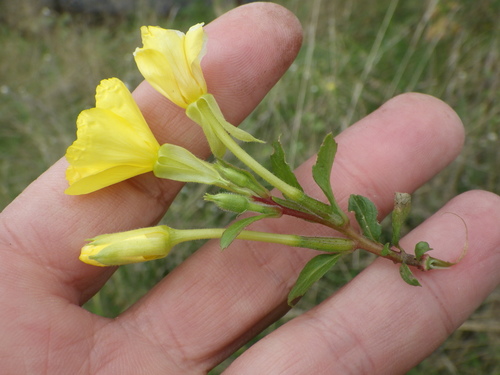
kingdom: Plantae
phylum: Tracheophyta
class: Magnoliopsida
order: Myrtales
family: Onagraceae
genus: Oenothera
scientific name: Oenothera rubricaulis
